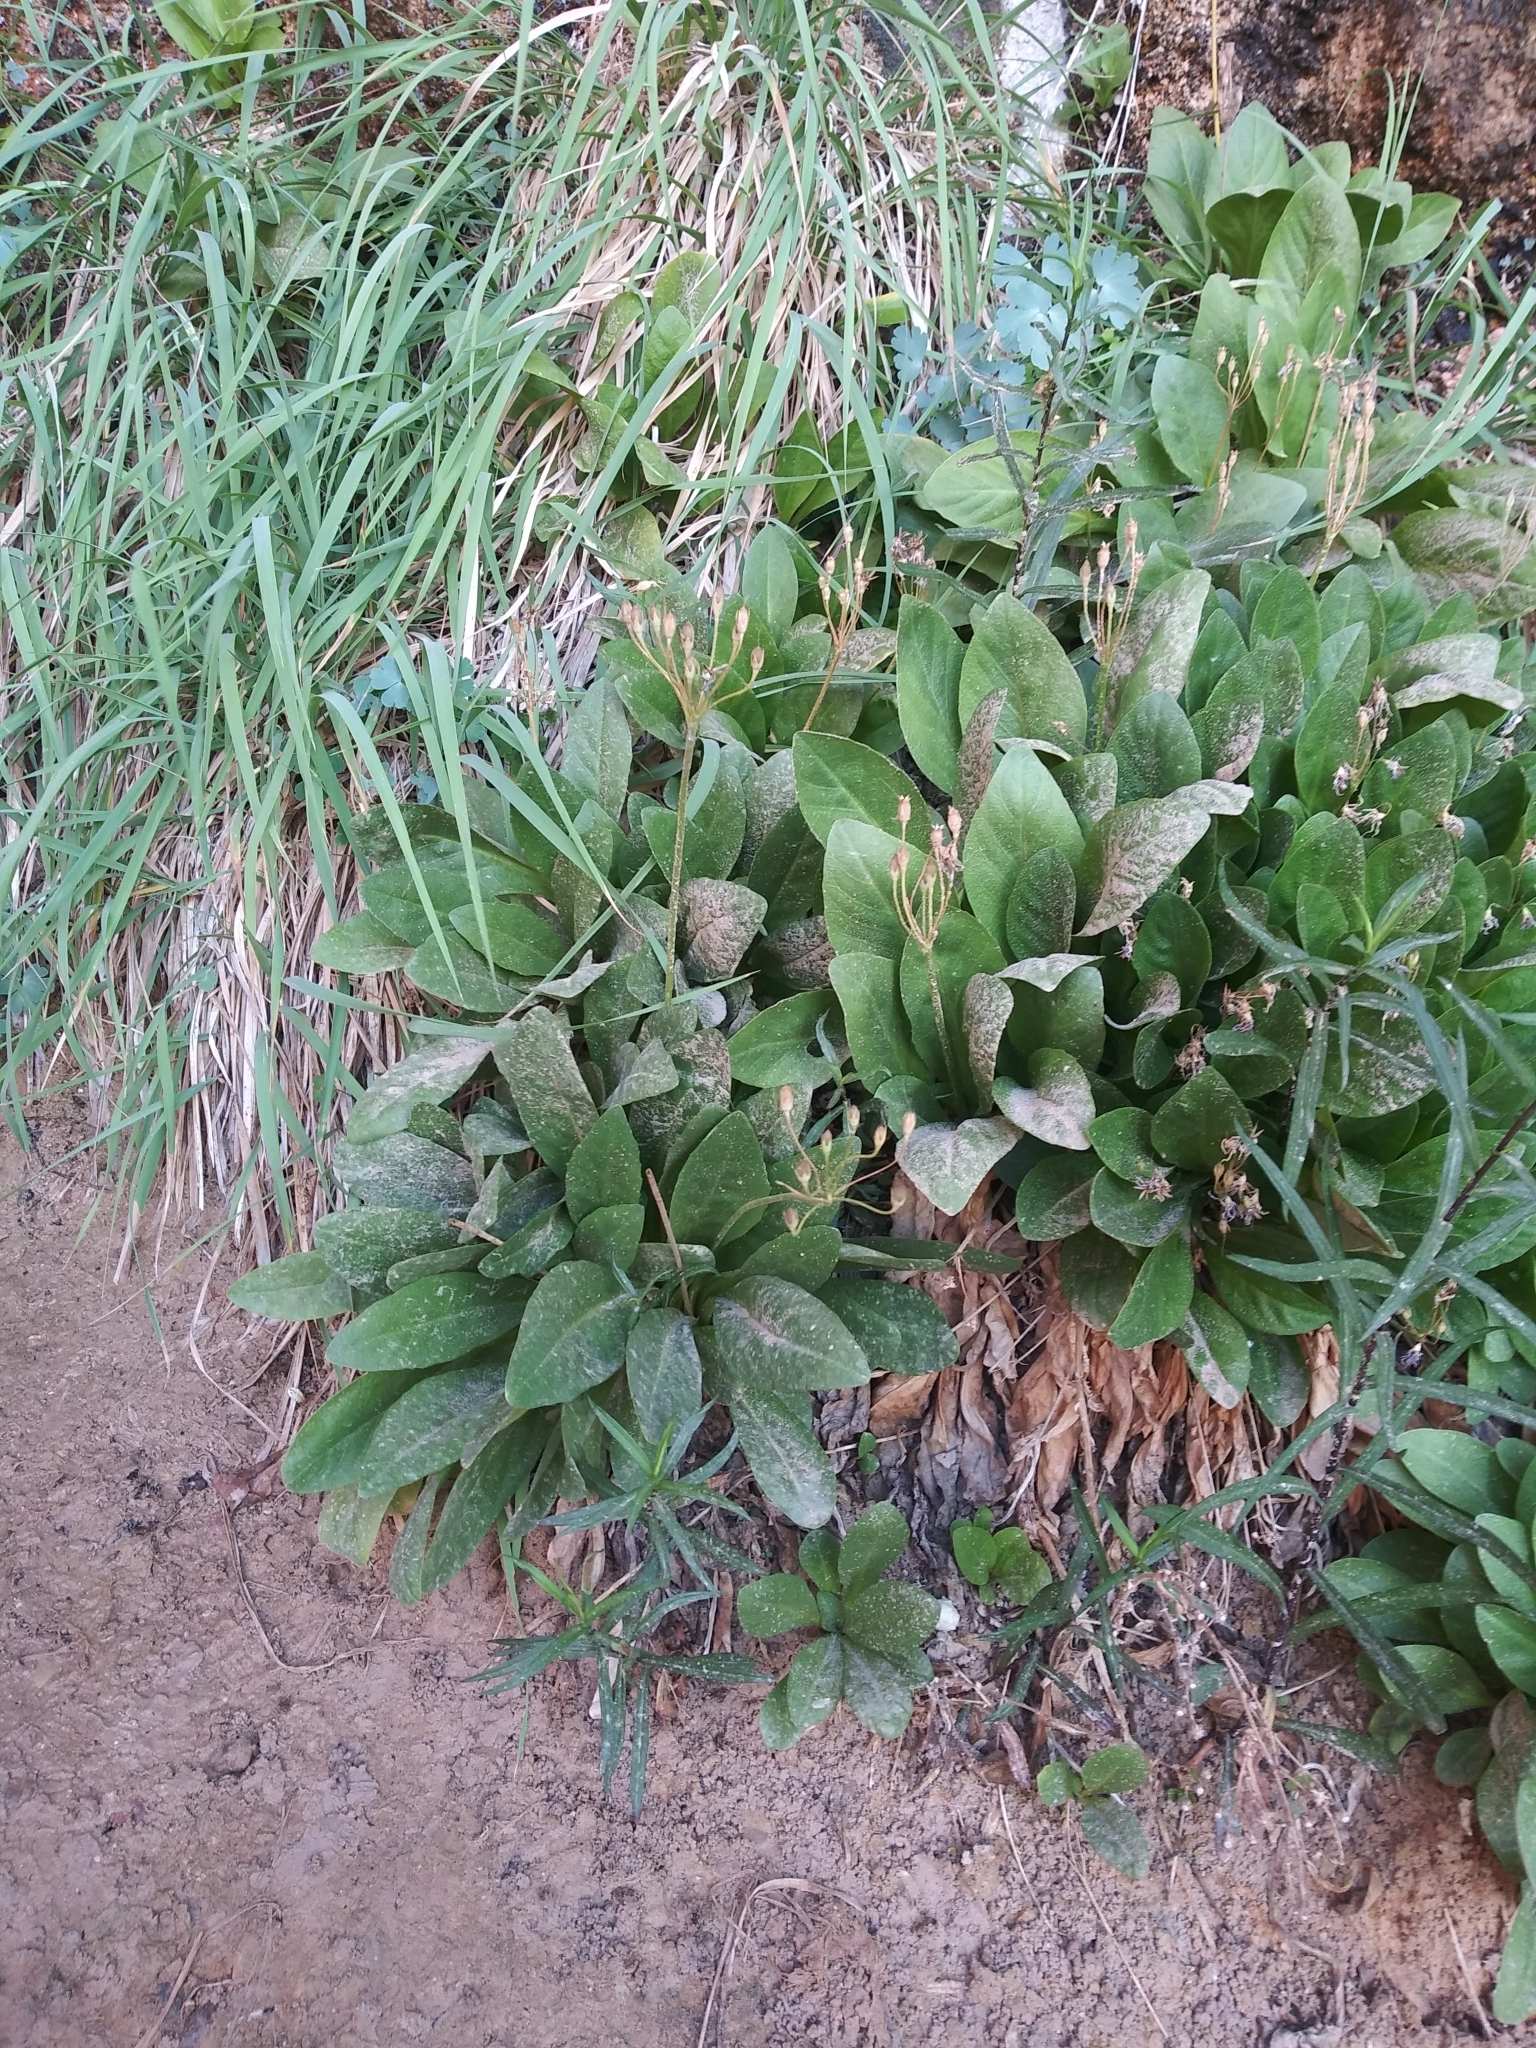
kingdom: Plantae
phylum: Tracheophyta
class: Magnoliopsida
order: Ericales
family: Primulaceae
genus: Dodecatheon
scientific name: Dodecatheon pulchellum
